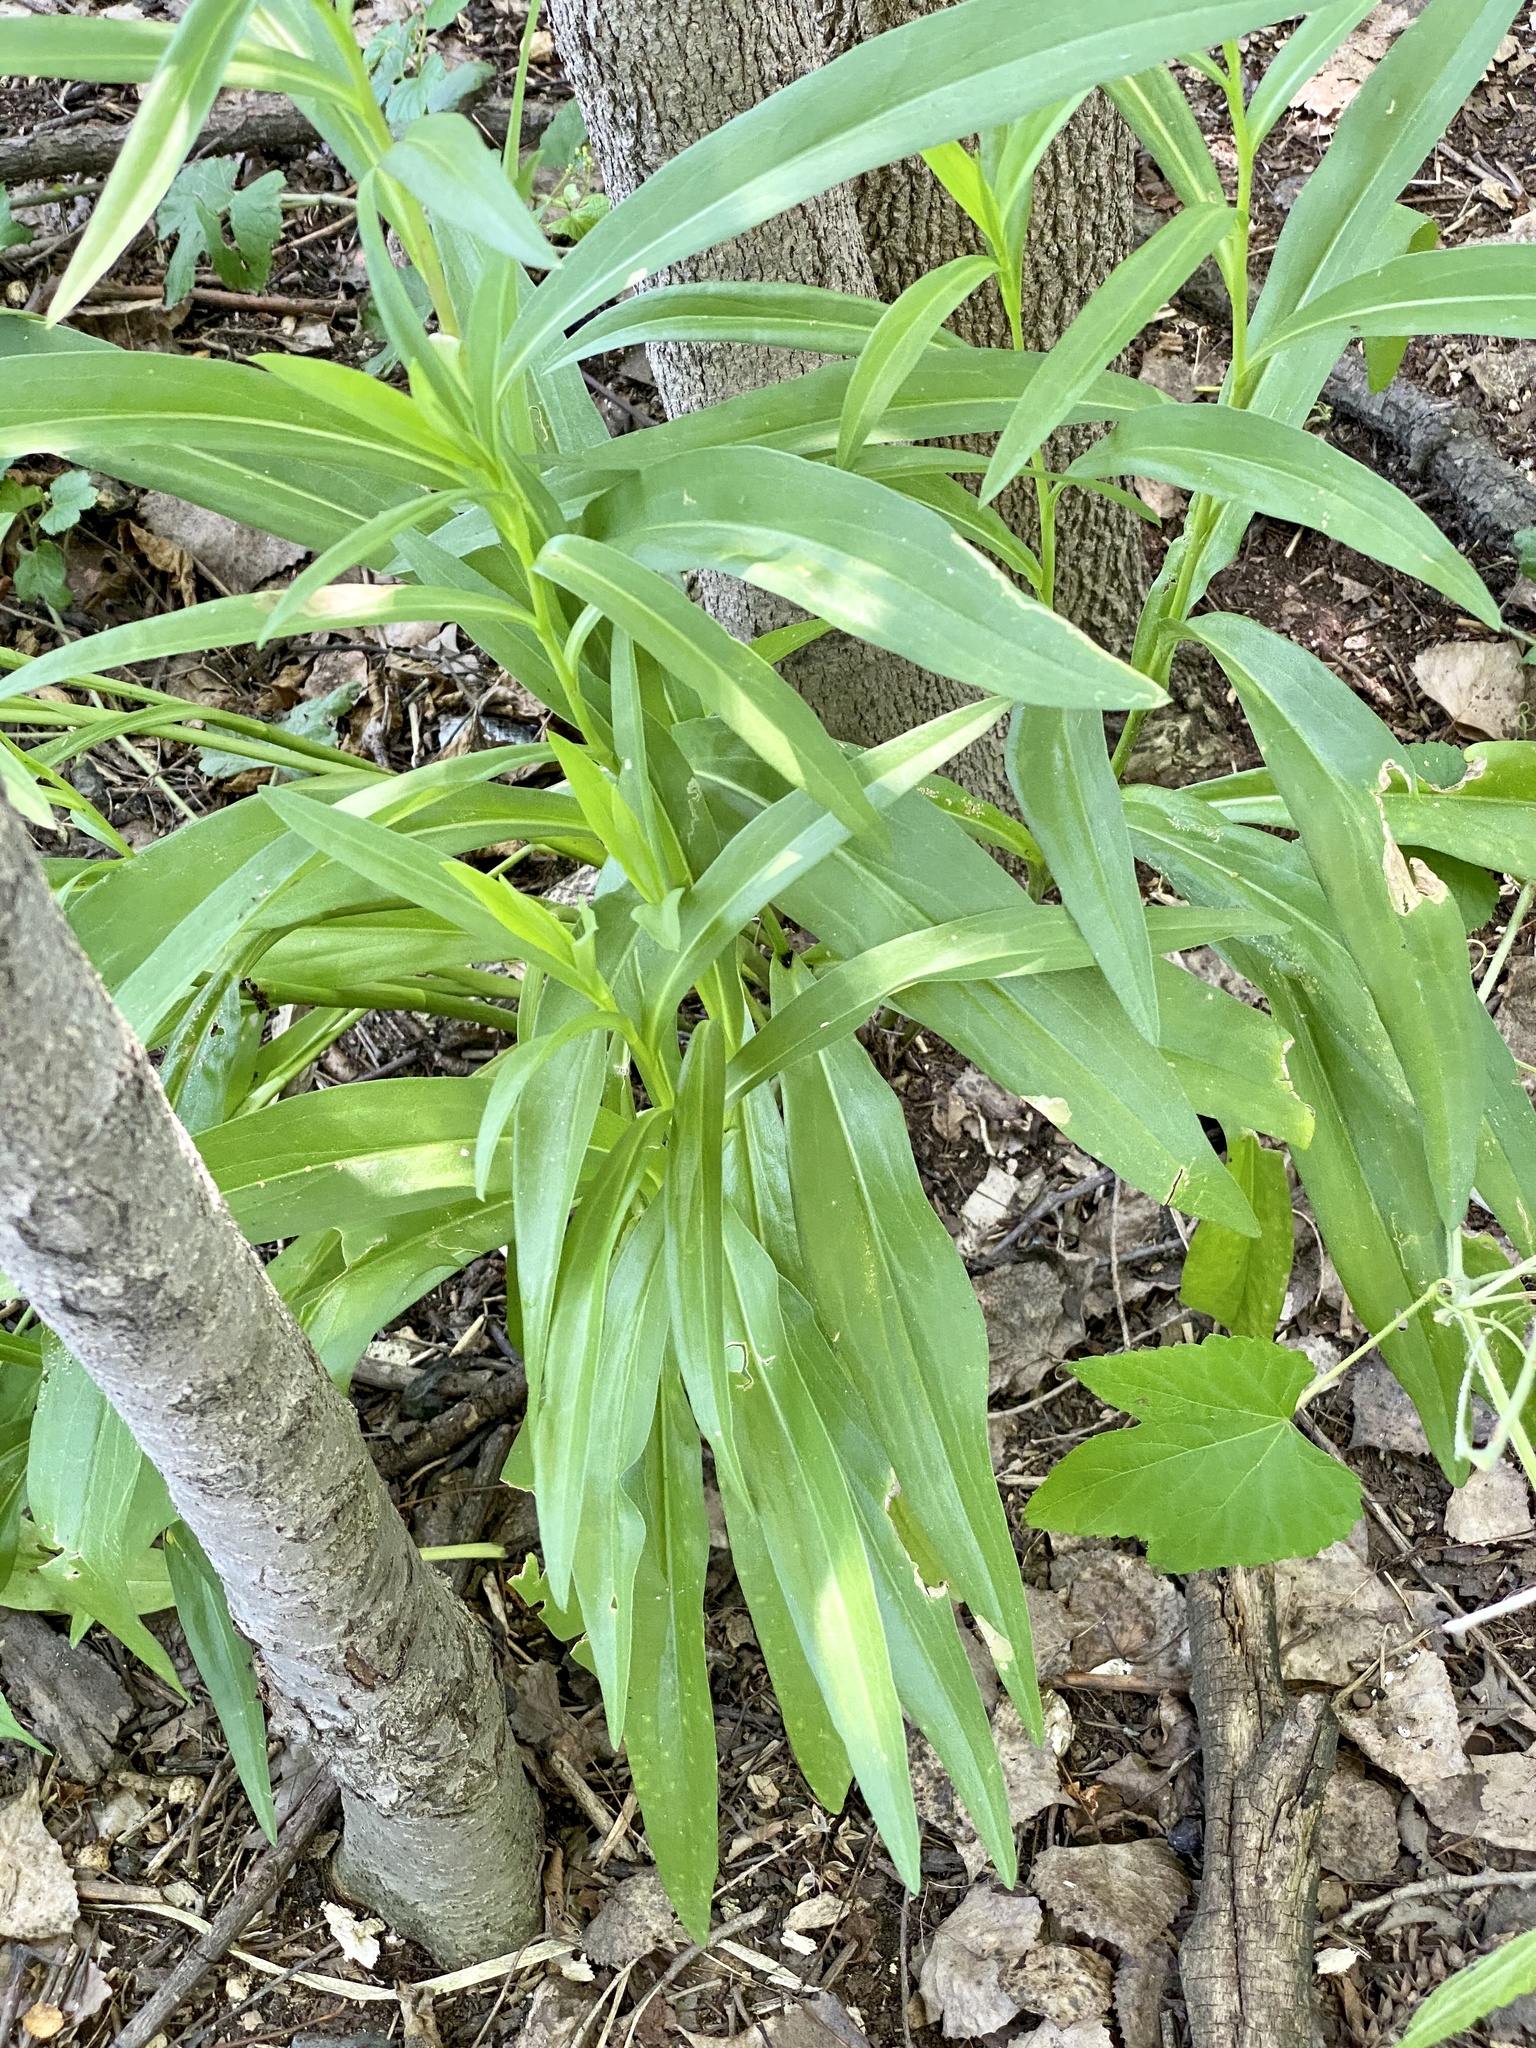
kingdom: Plantae
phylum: Tracheophyta
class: Magnoliopsida
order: Asterales
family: Asteraceae
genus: Solidago
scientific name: Solidago sempervirens
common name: Salt-marsh goldenrod
